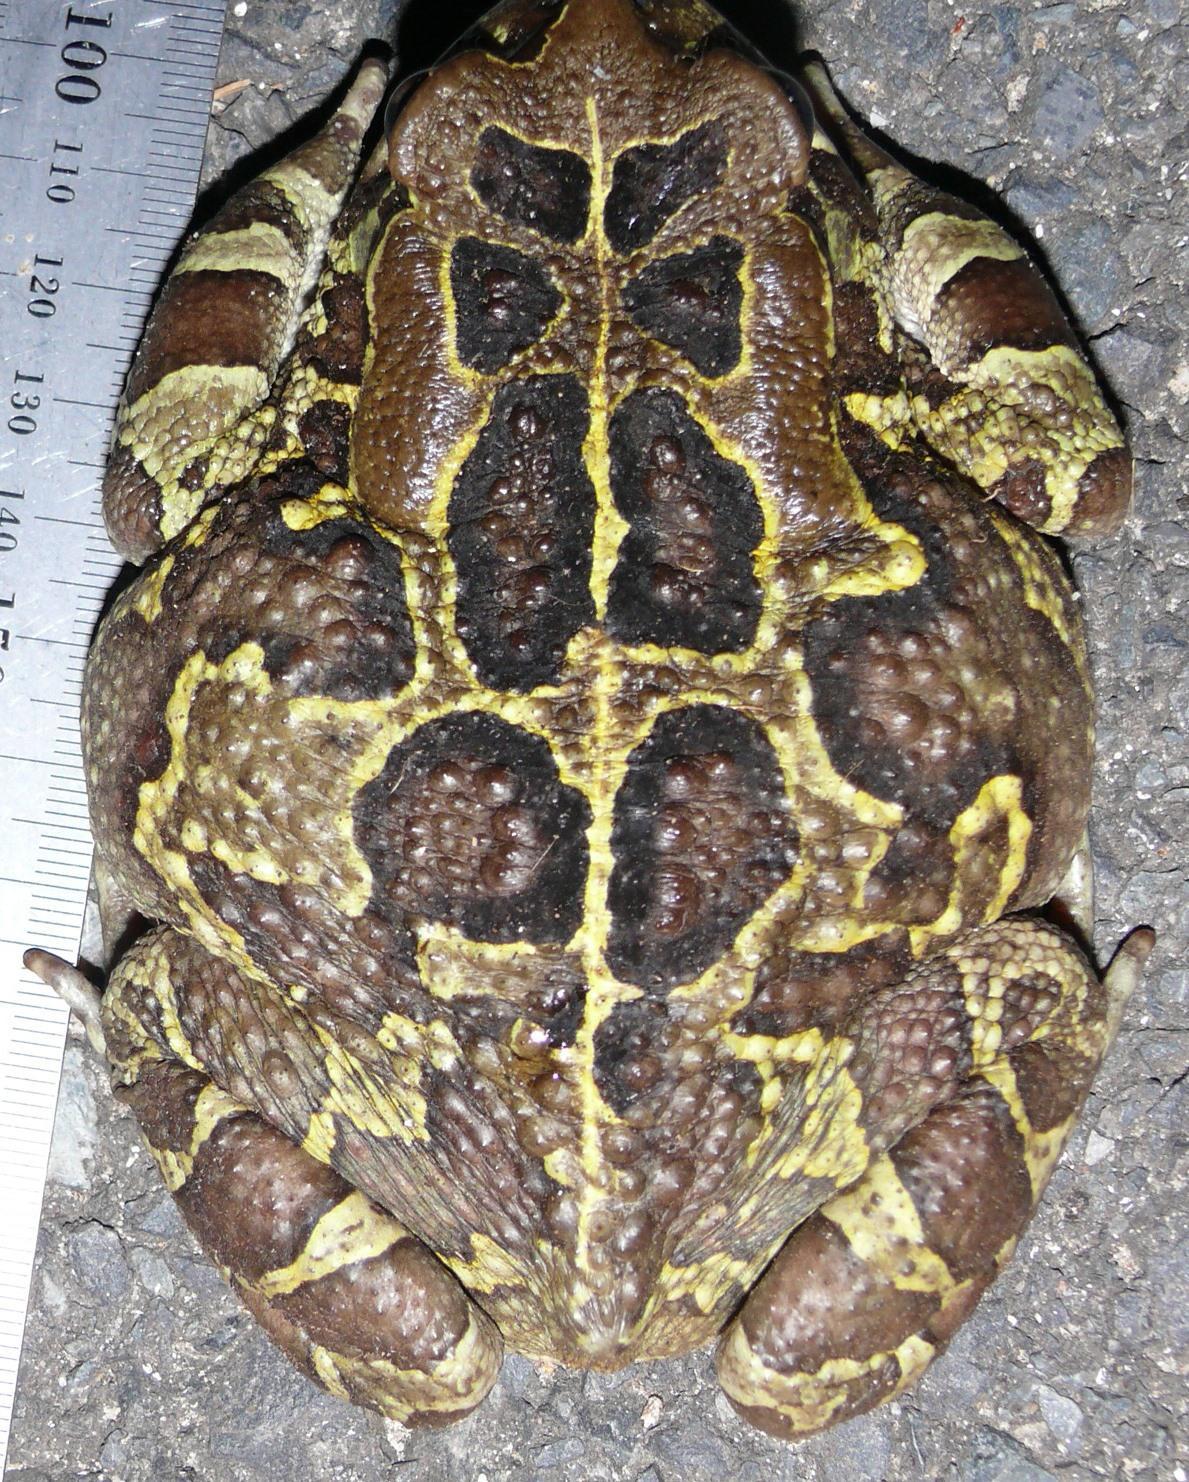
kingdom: Animalia
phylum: Chordata
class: Amphibia
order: Anura
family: Bufonidae
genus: Sclerophrys
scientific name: Sclerophrys pantherina
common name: Panther toad
